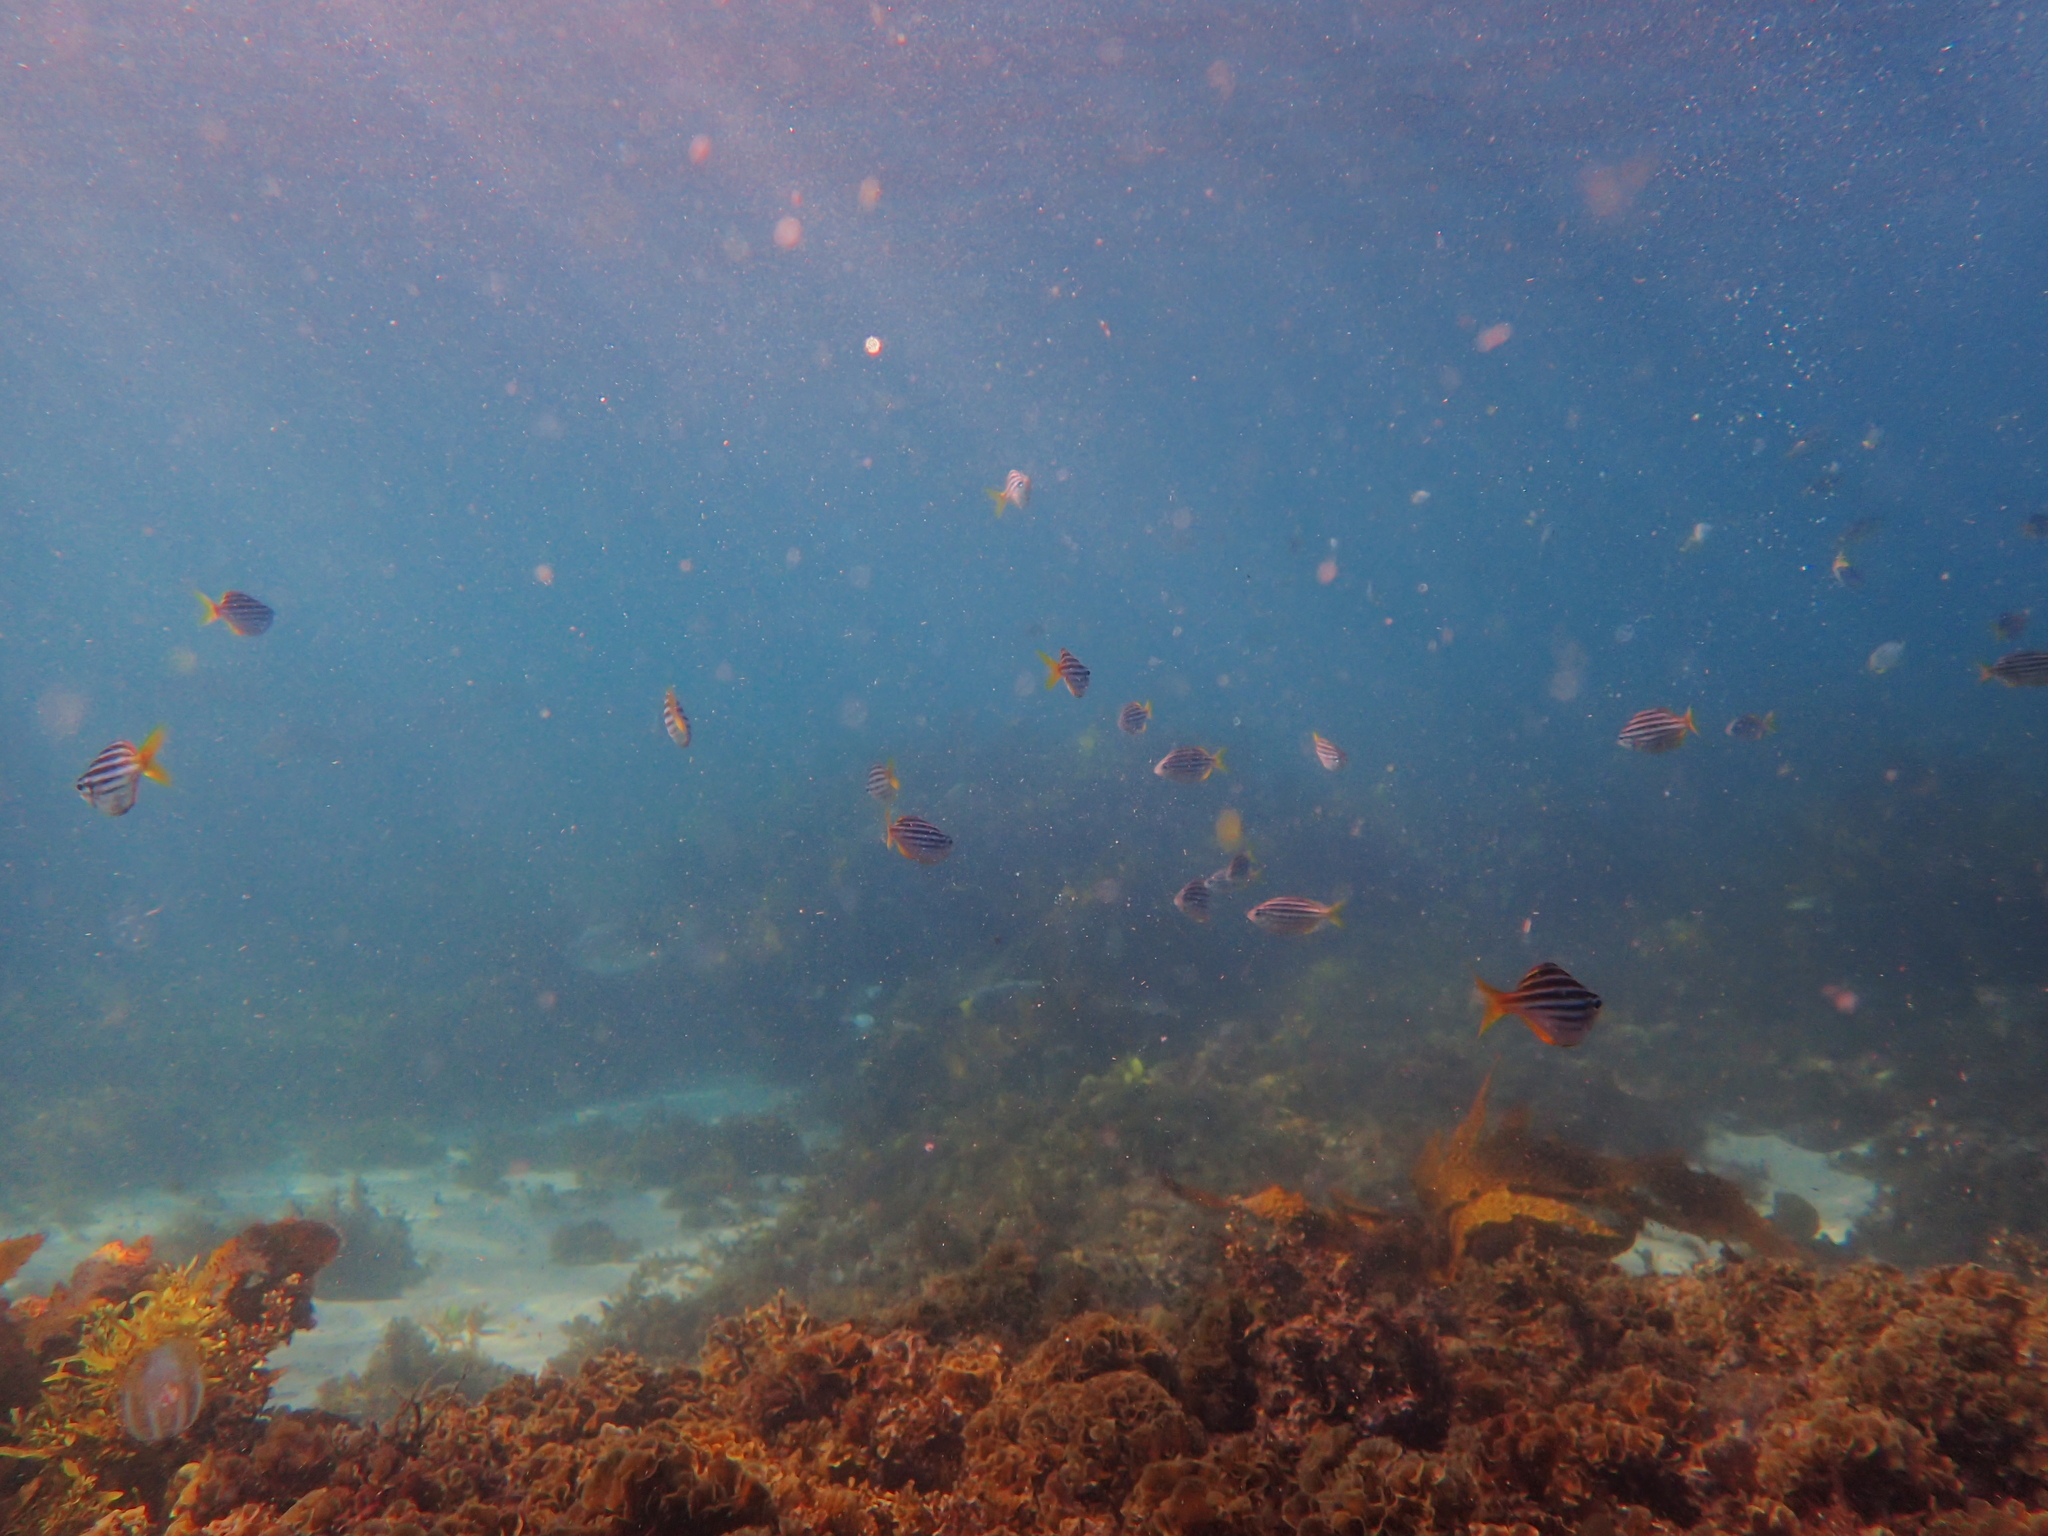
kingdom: Animalia
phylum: Chordata
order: Perciformes
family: Kyphosidae
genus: Atypichthys
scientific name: Atypichthys strigatus
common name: Australian mado
